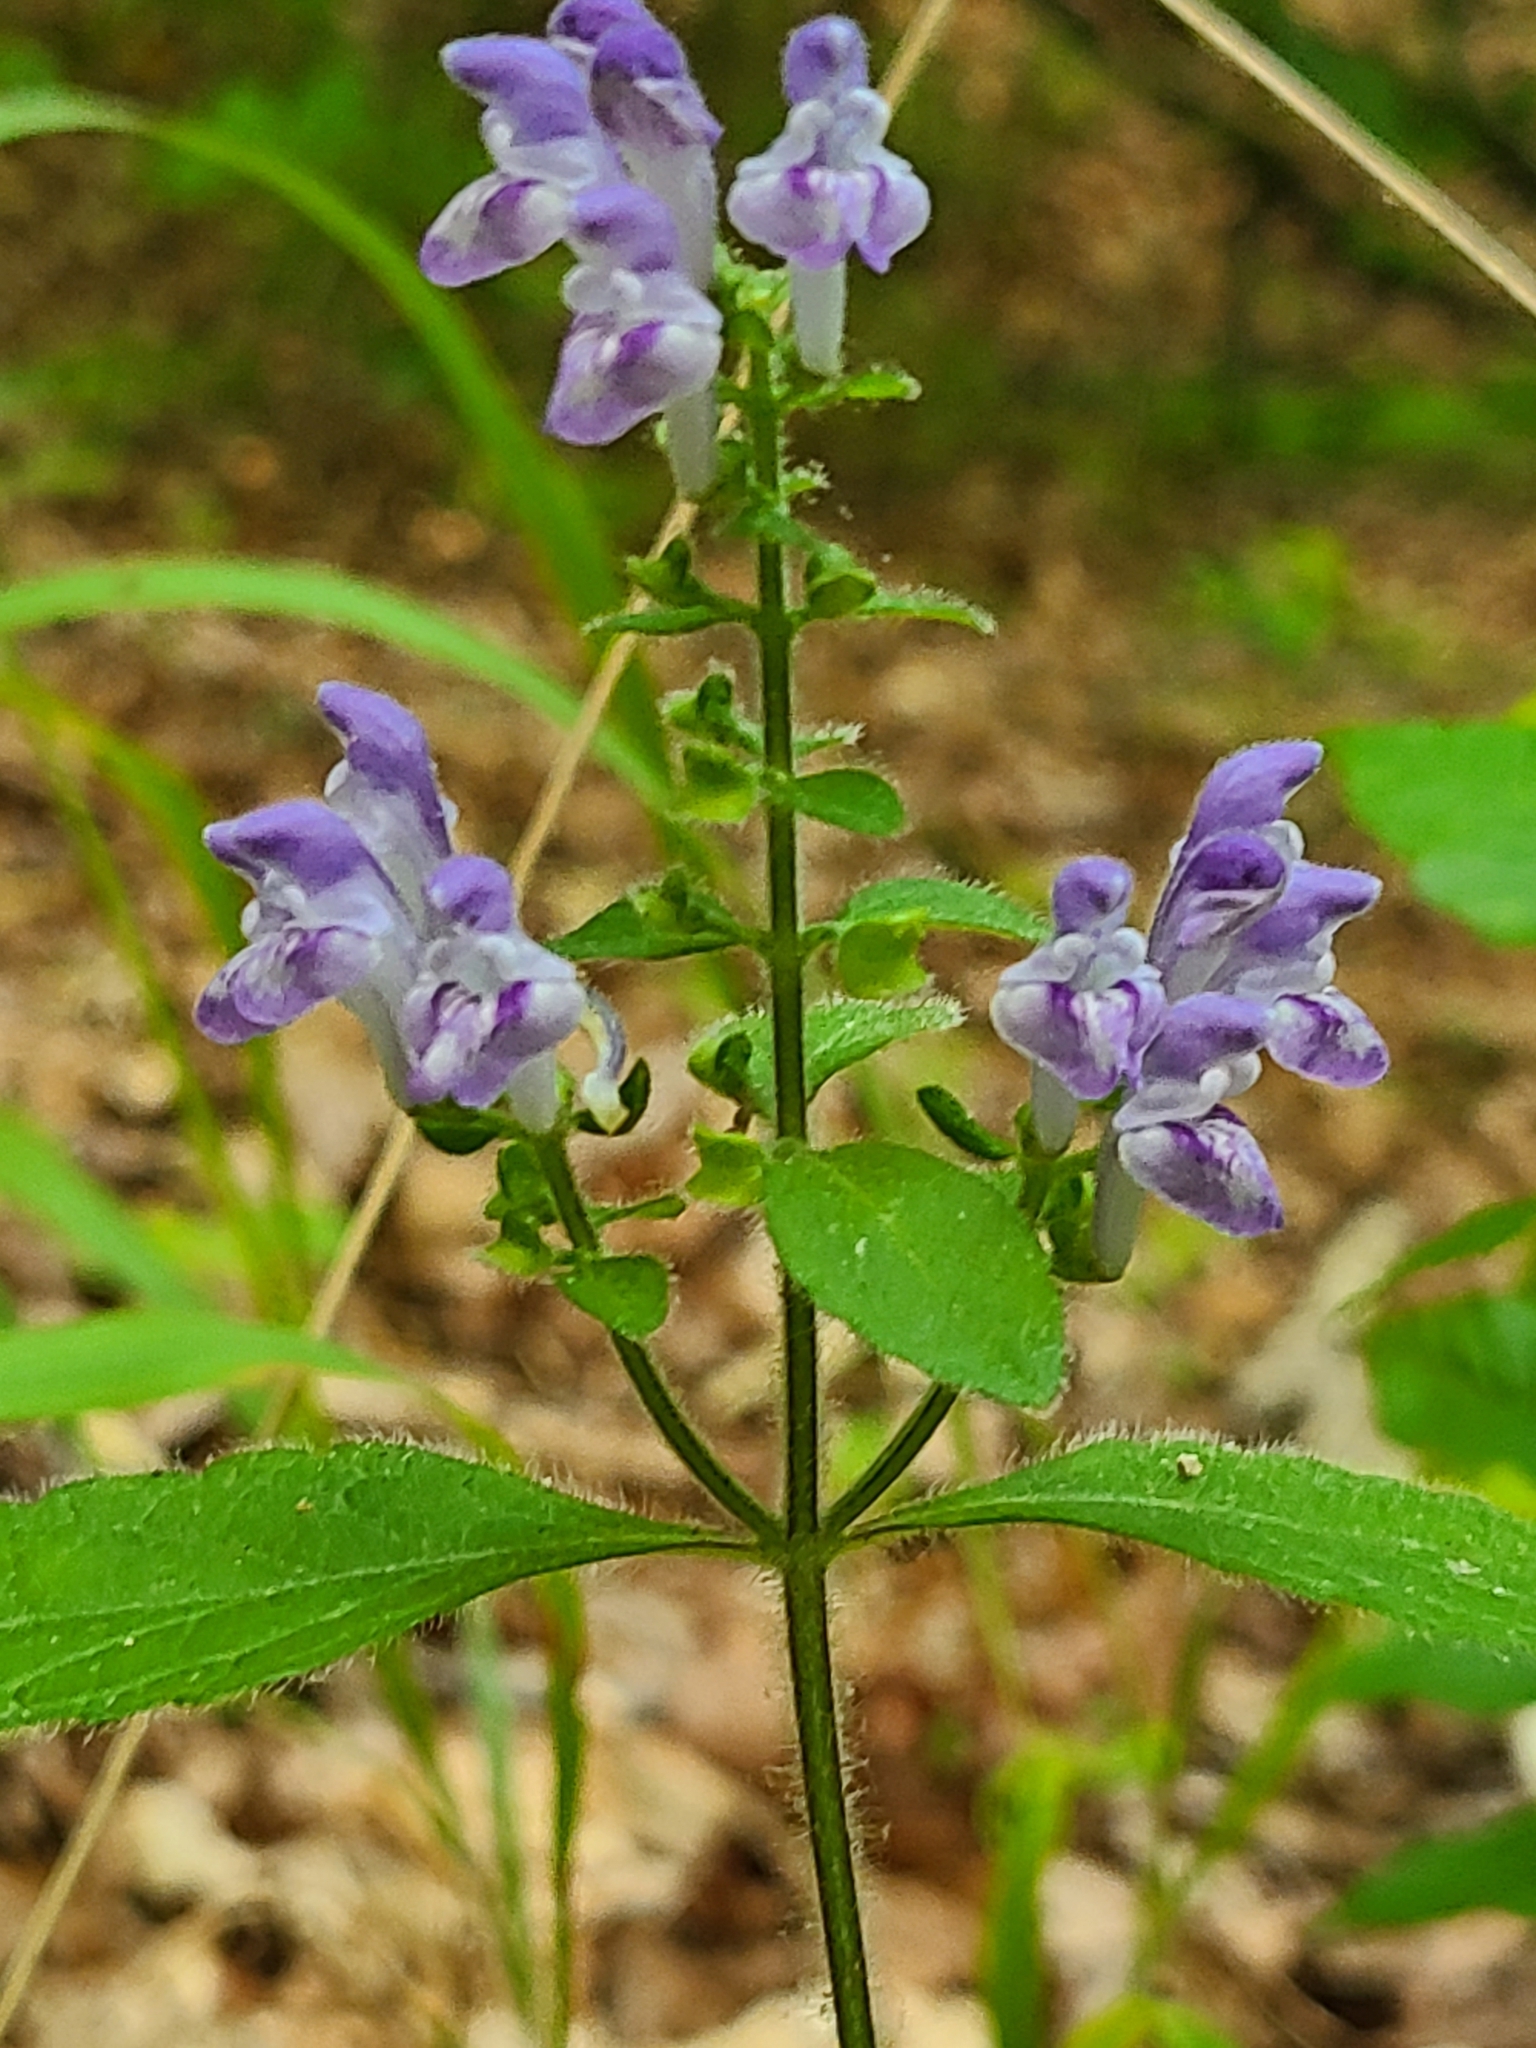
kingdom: Plantae
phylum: Tracheophyta
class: Magnoliopsida
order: Lamiales
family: Lamiaceae
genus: Scutellaria
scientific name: Scutellaria elliptica
